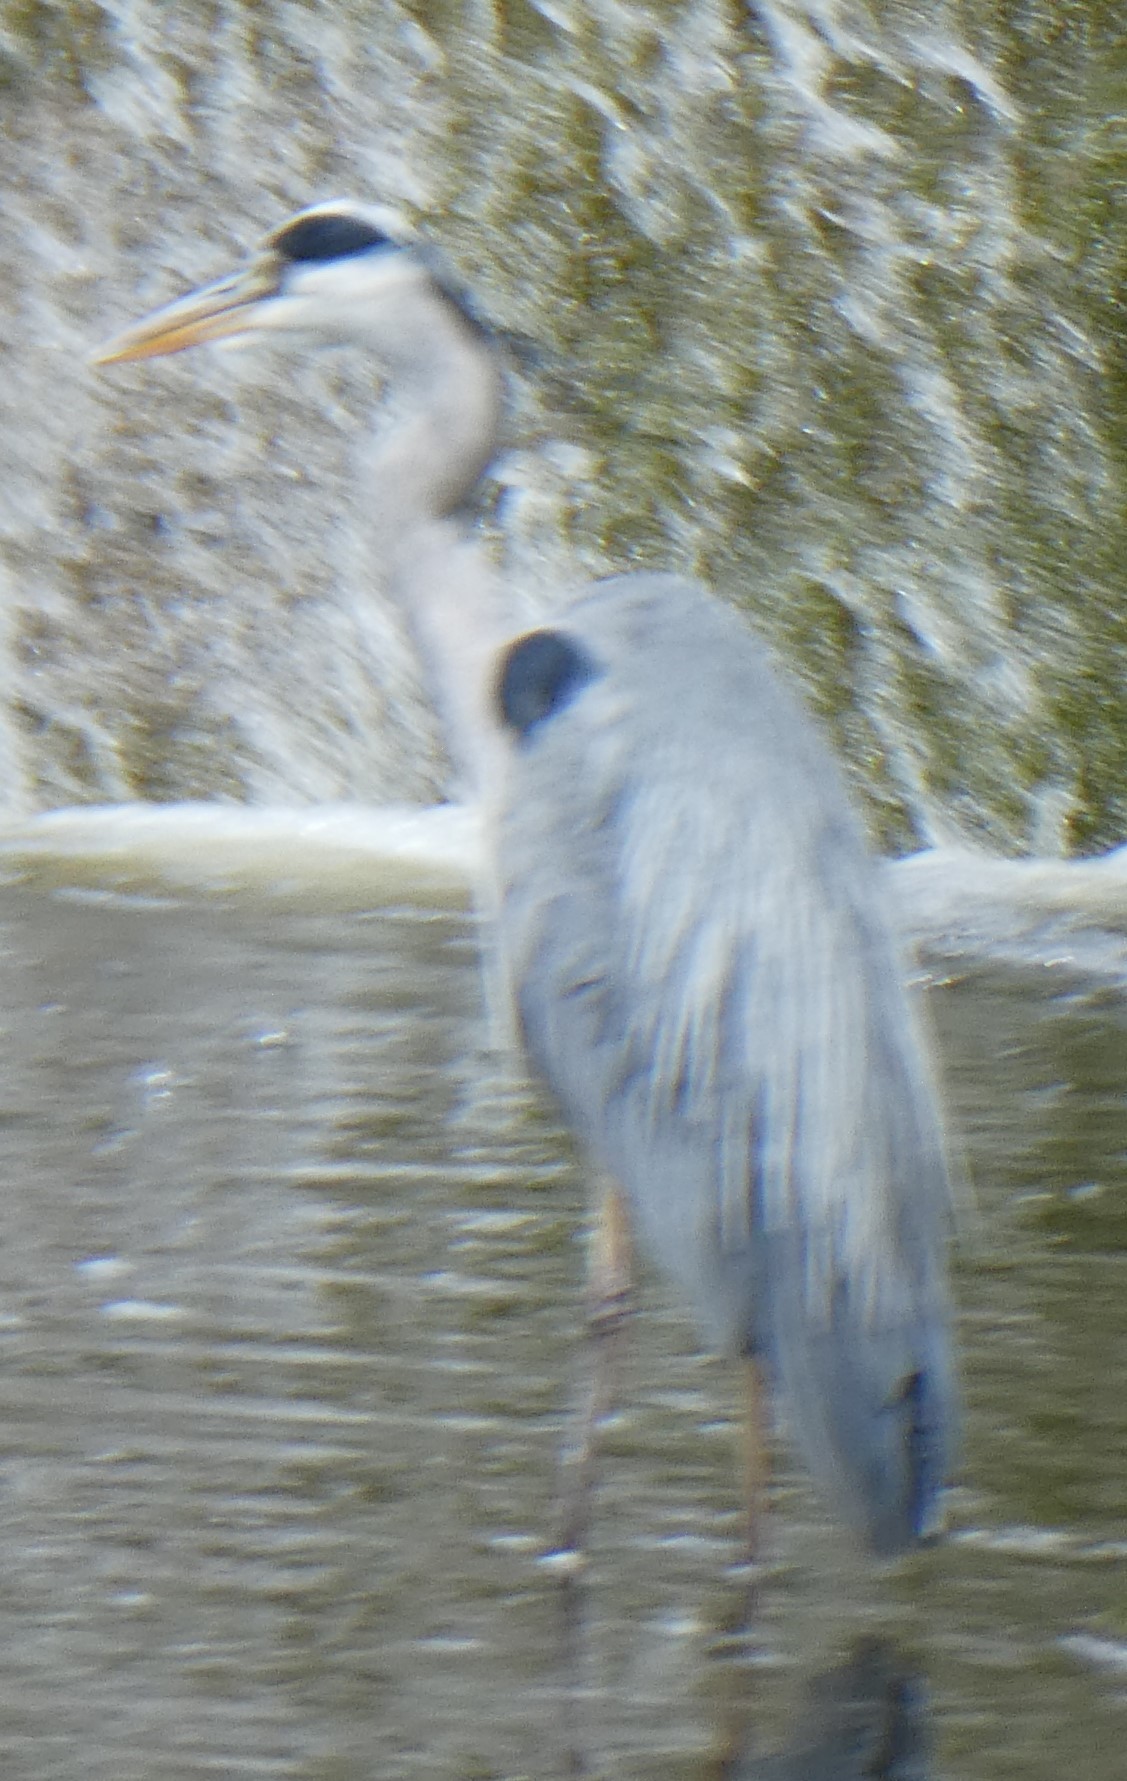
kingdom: Animalia
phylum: Chordata
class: Aves
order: Pelecaniformes
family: Ardeidae
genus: Ardea
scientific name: Ardea cinerea
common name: Grey heron
